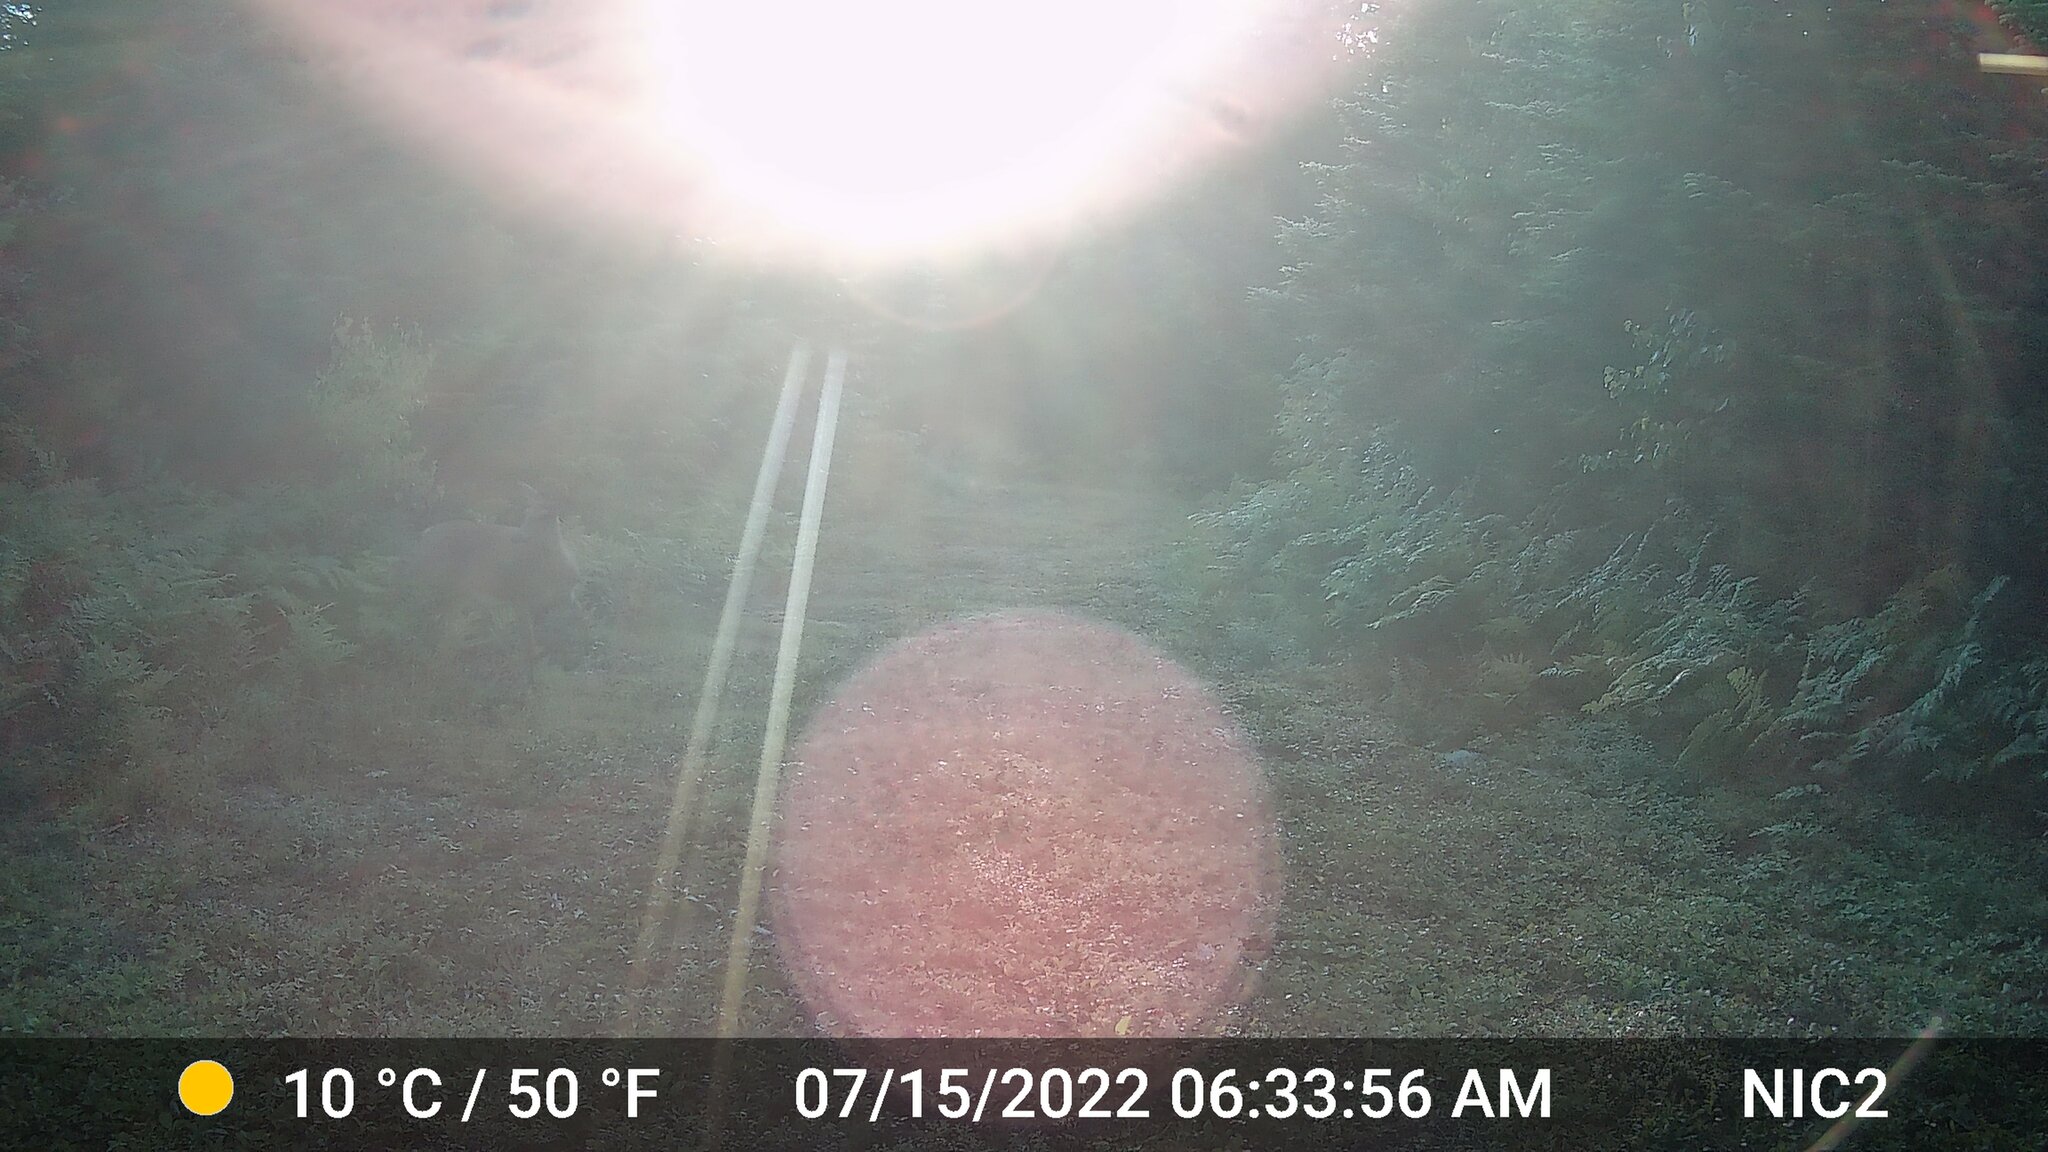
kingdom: Animalia
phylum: Chordata
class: Mammalia
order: Artiodactyla
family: Cervidae
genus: Odocoileus
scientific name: Odocoileus virginianus
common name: White-tailed deer
